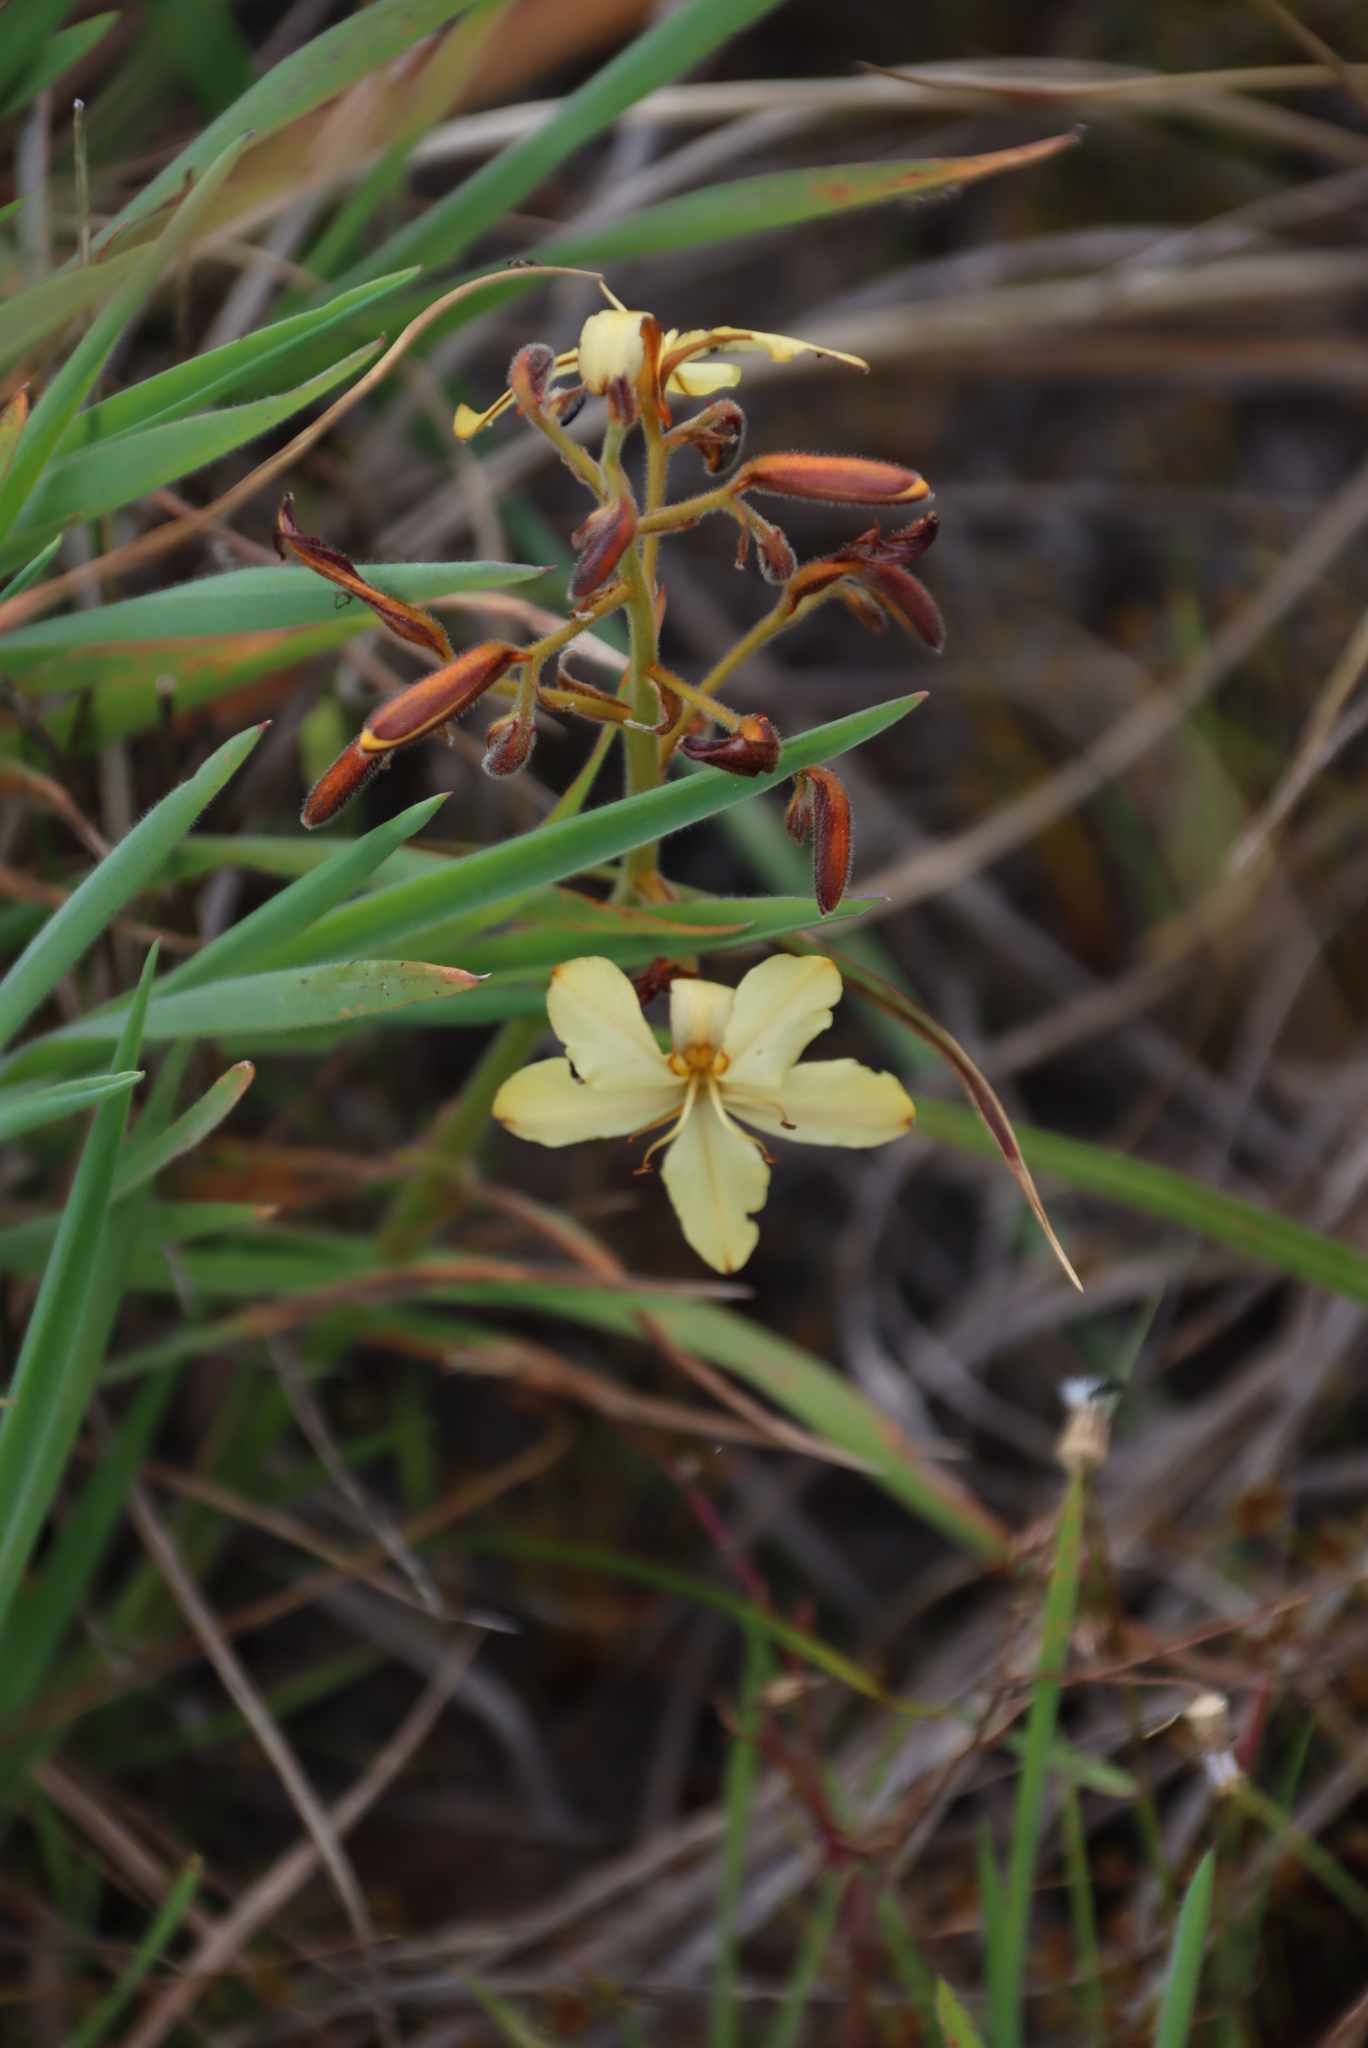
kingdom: Plantae
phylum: Tracheophyta
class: Liliopsida
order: Commelinales
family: Haemodoraceae
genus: Wachendorfia
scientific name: Wachendorfia paniculata
